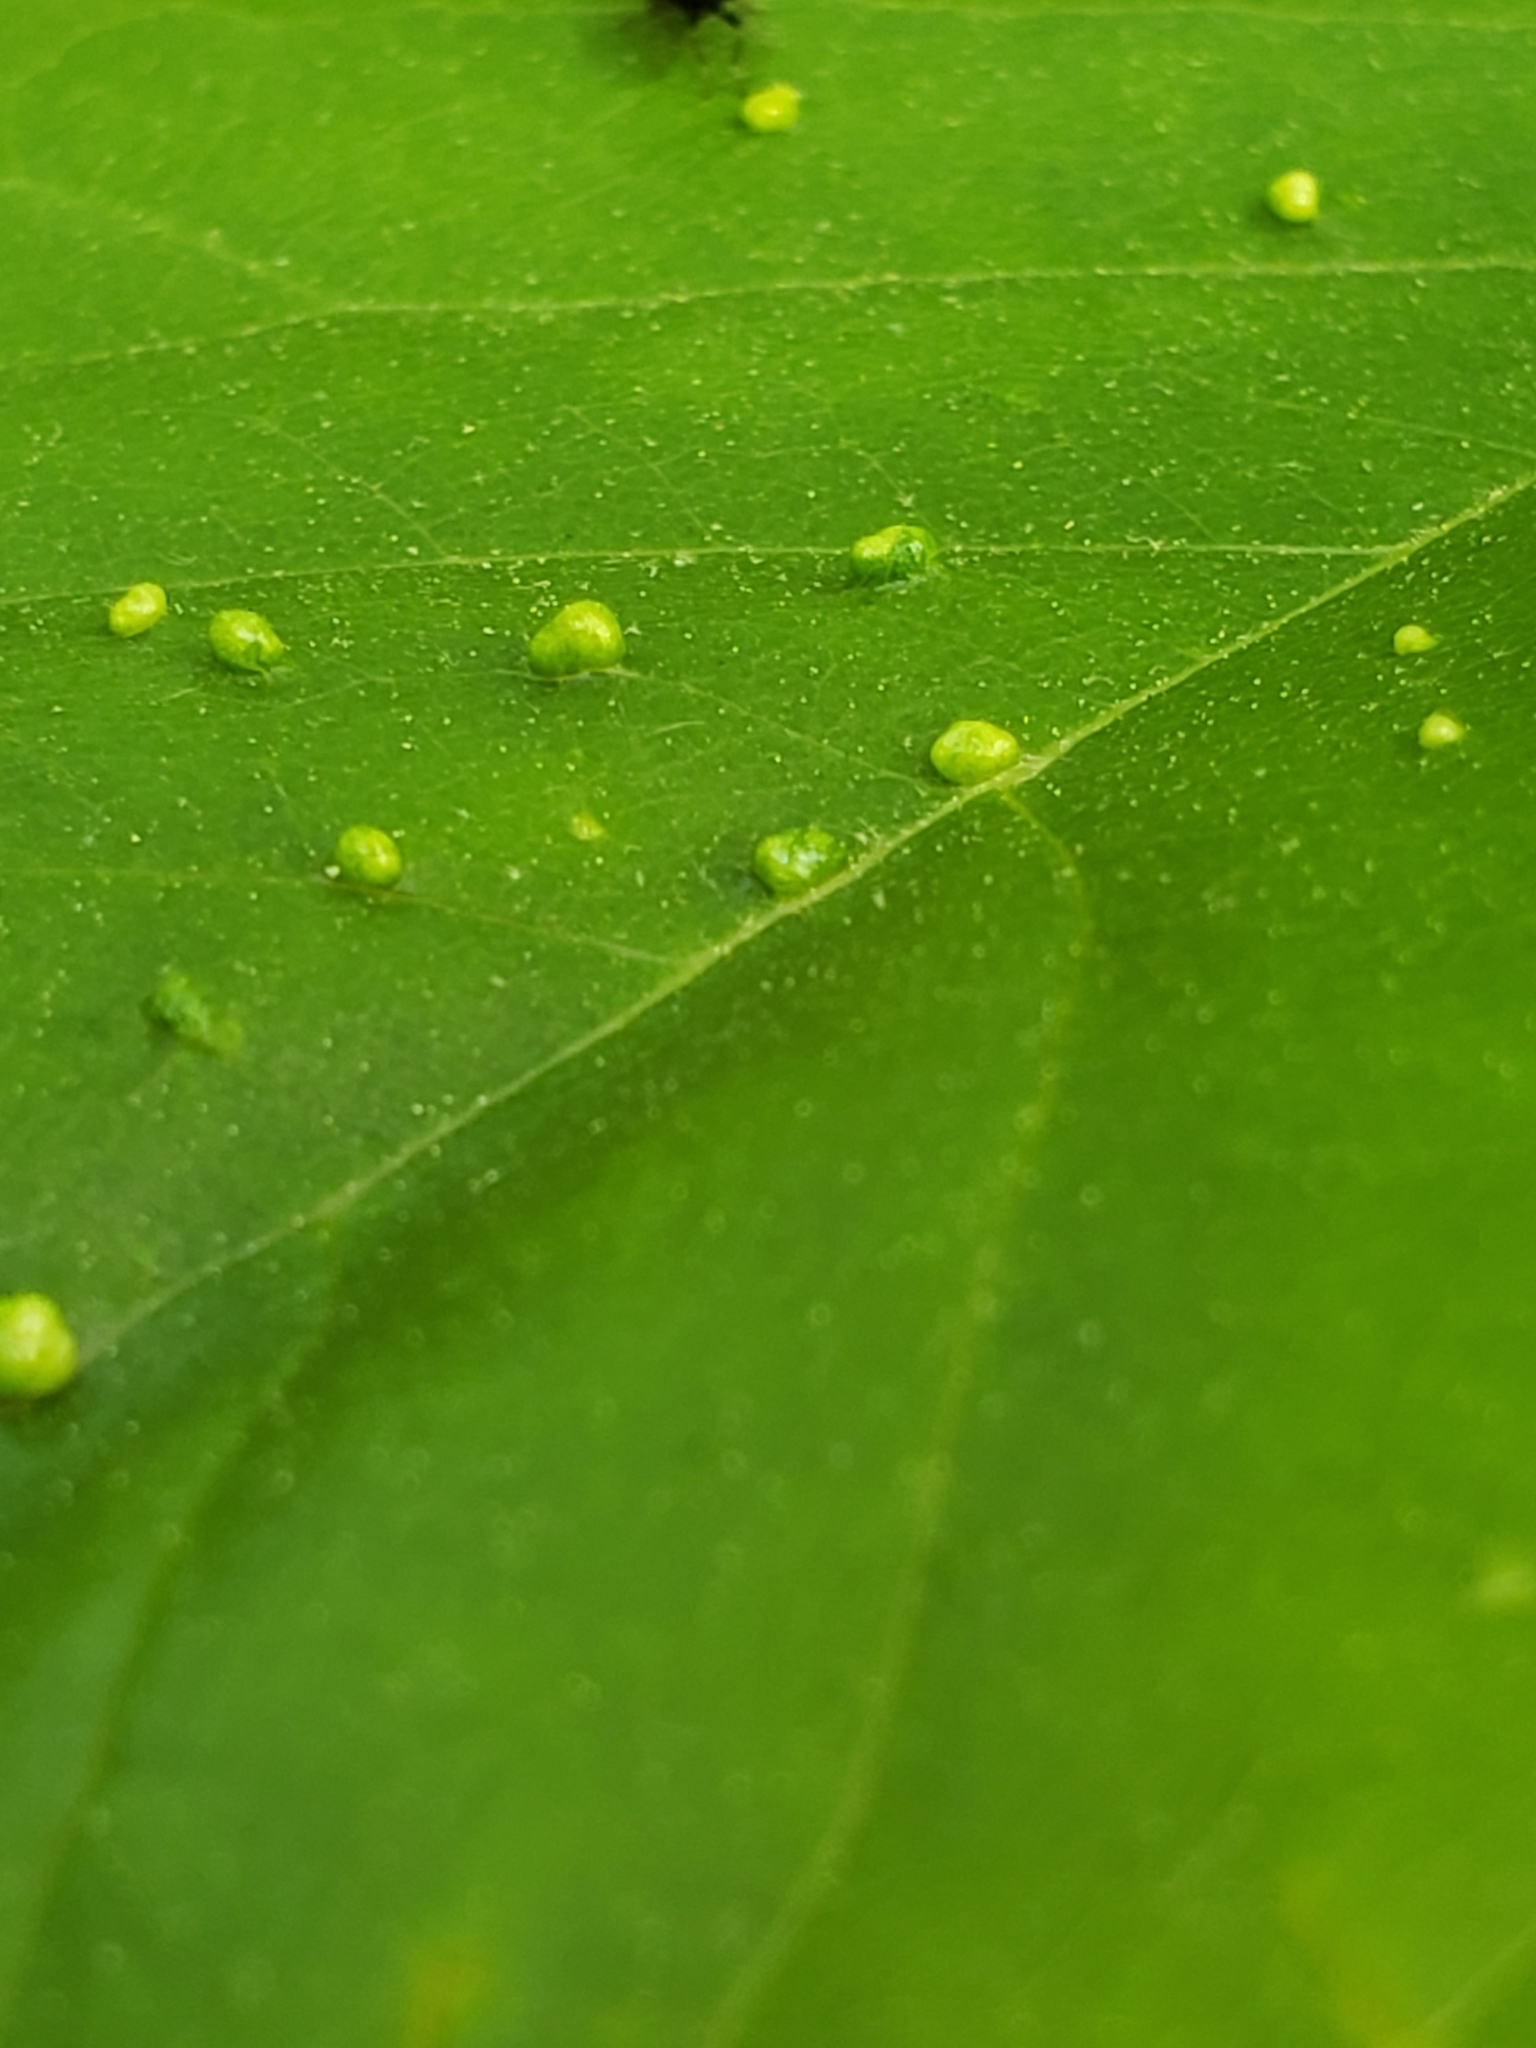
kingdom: Animalia
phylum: Arthropoda
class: Arachnida
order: Trombidiformes
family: Eriophyidae
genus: Aceria
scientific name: Aceria
